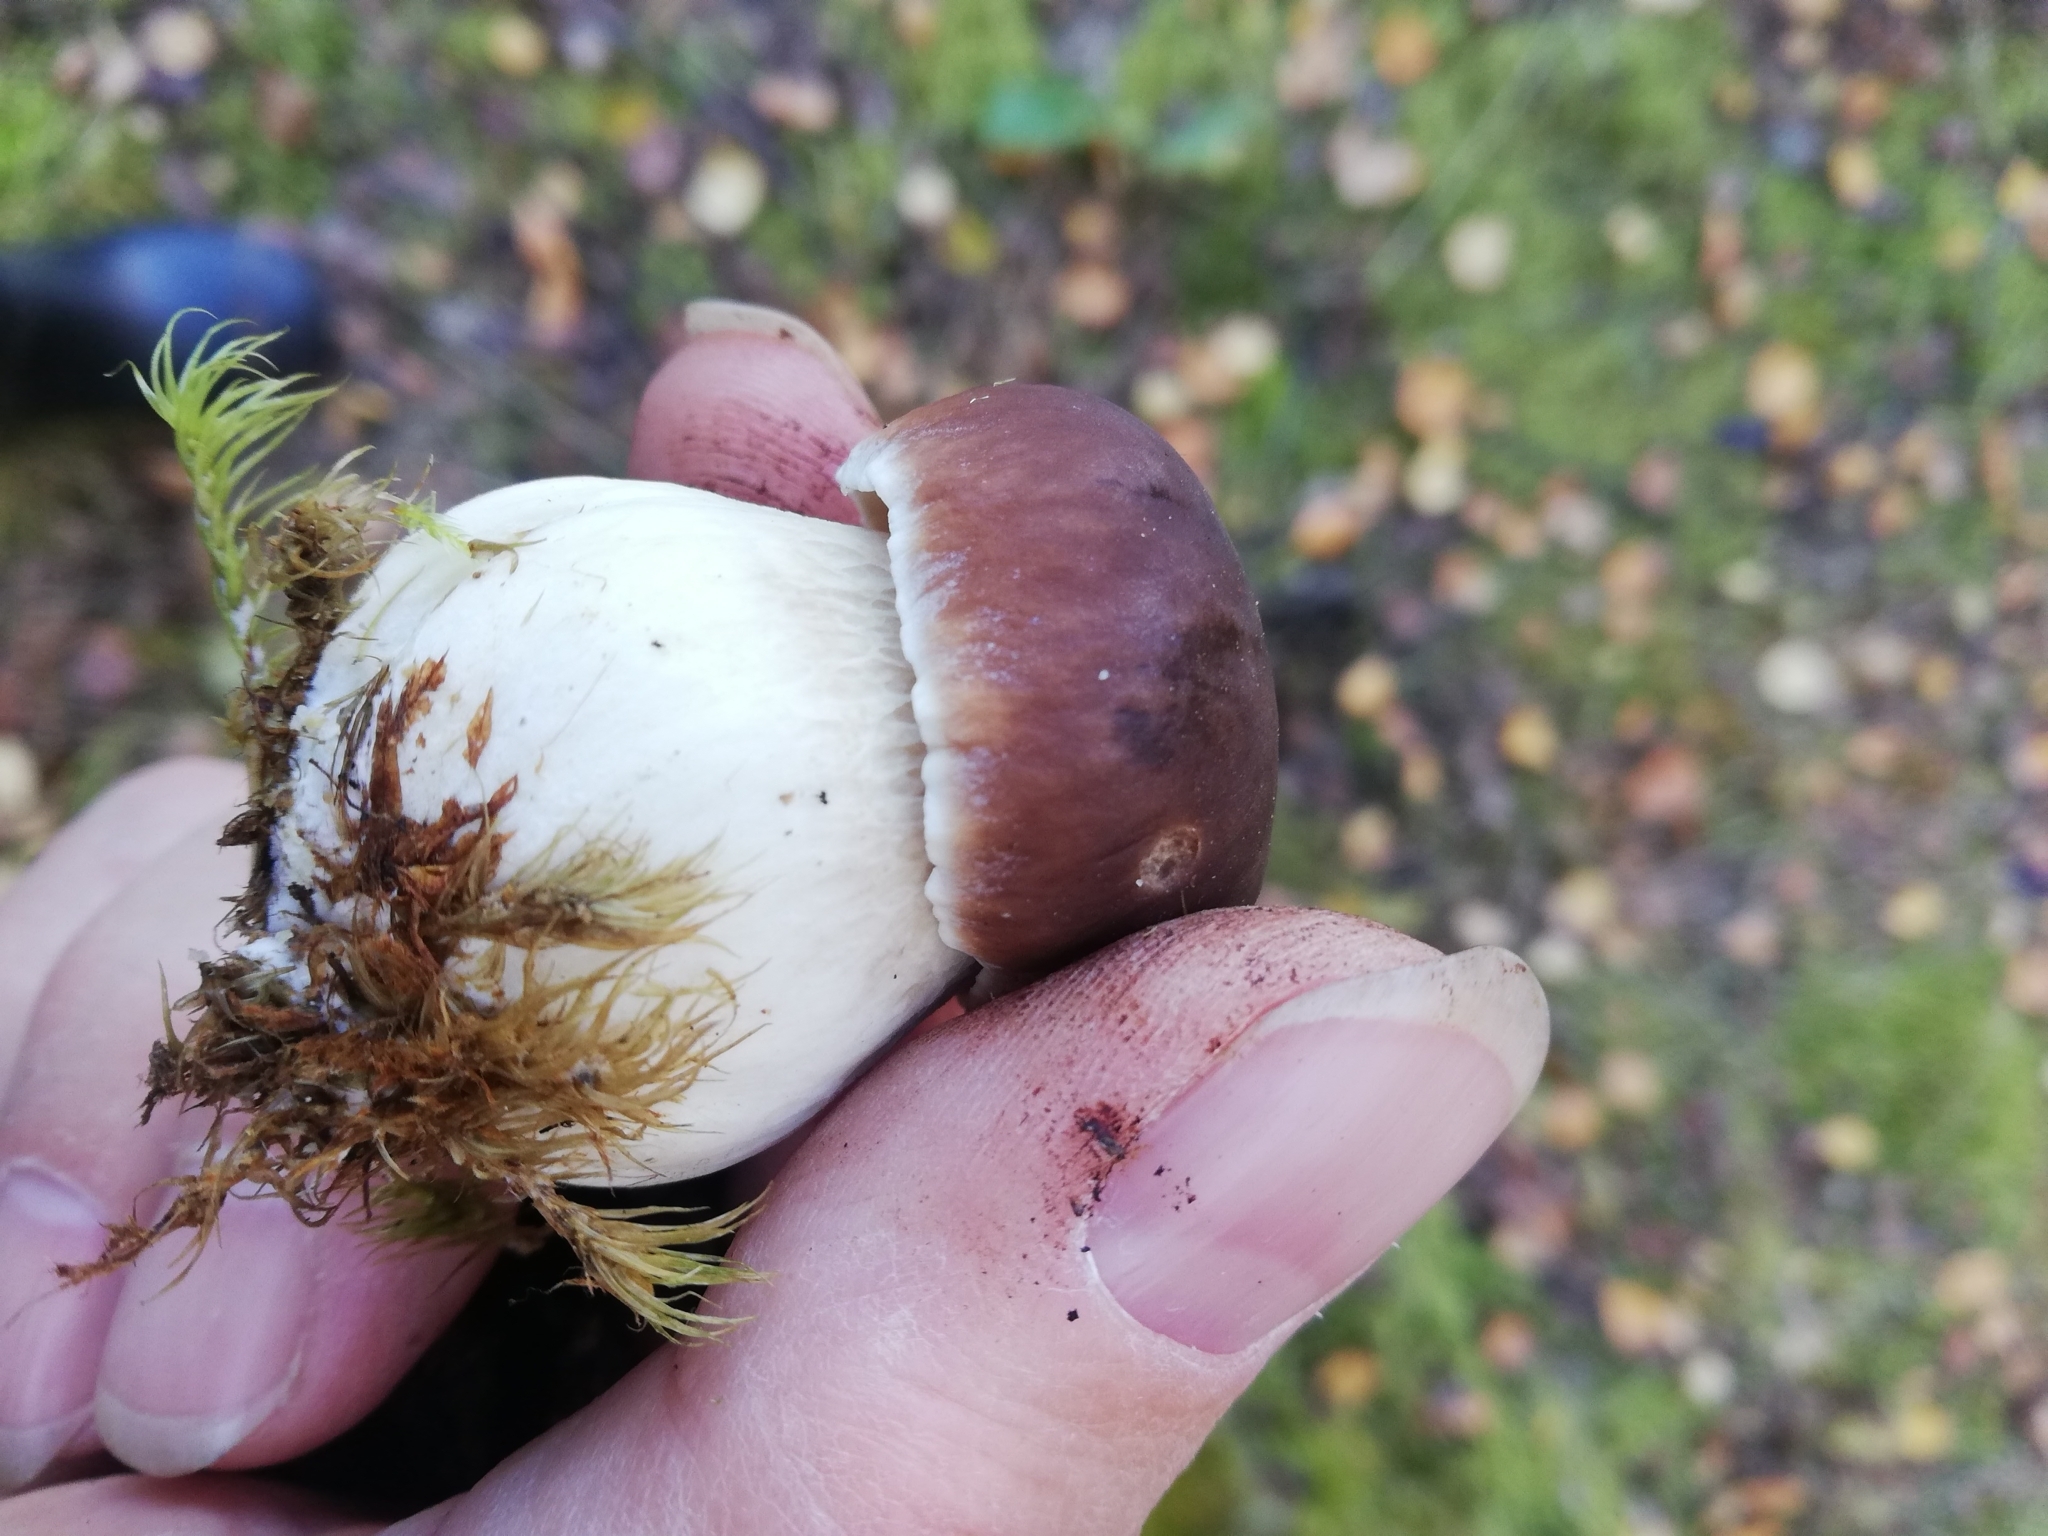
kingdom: Fungi
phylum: Basidiomycota
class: Agaricomycetes
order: Boletales
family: Boletaceae
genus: Boletus
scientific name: Boletus edulis
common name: Cep
